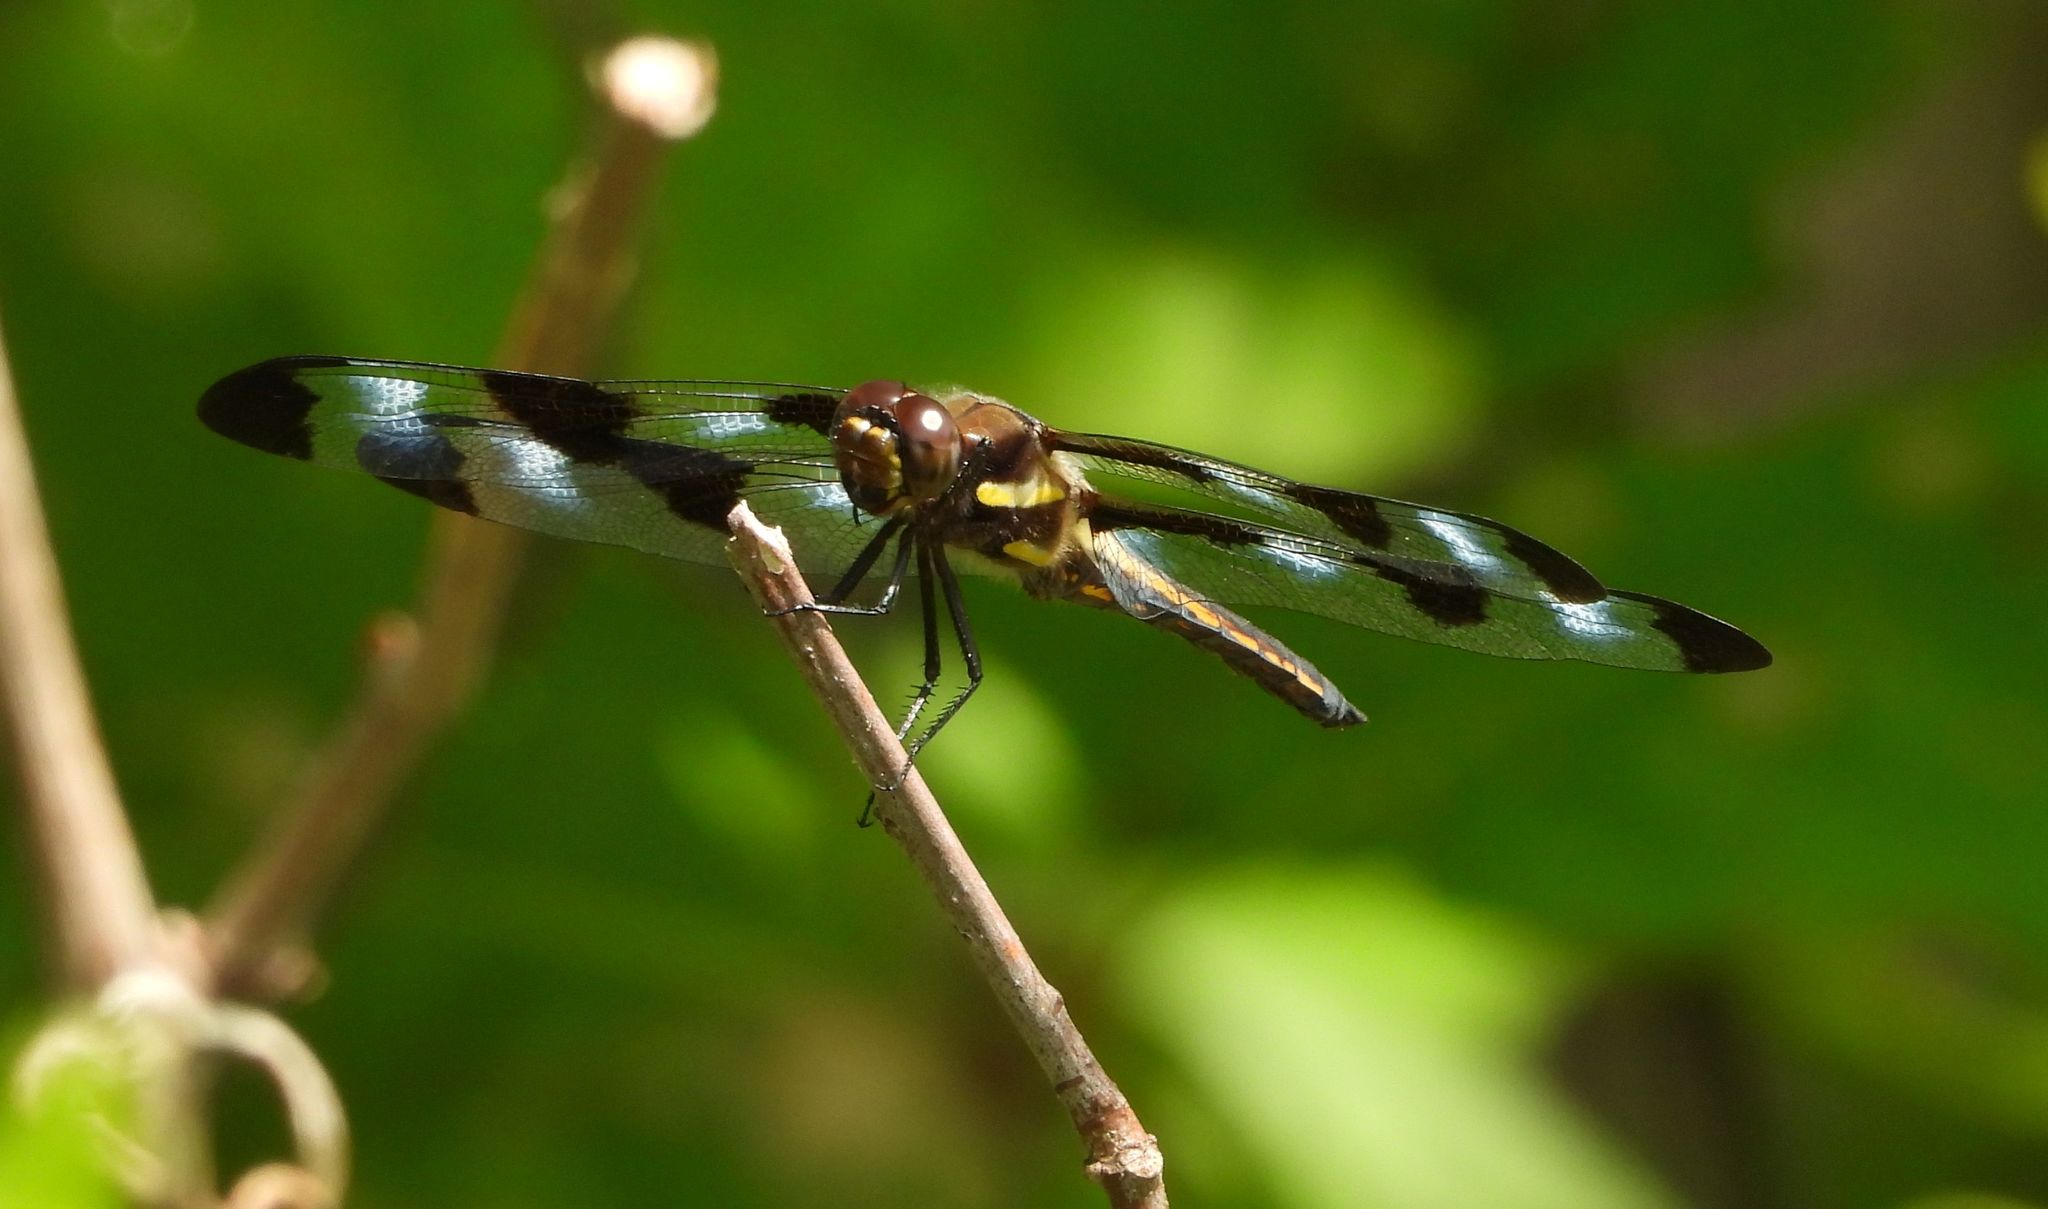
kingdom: Animalia
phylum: Arthropoda
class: Insecta
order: Odonata
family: Libellulidae
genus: Libellula
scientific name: Libellula pulchella
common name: Twelve-spotted skimmer
